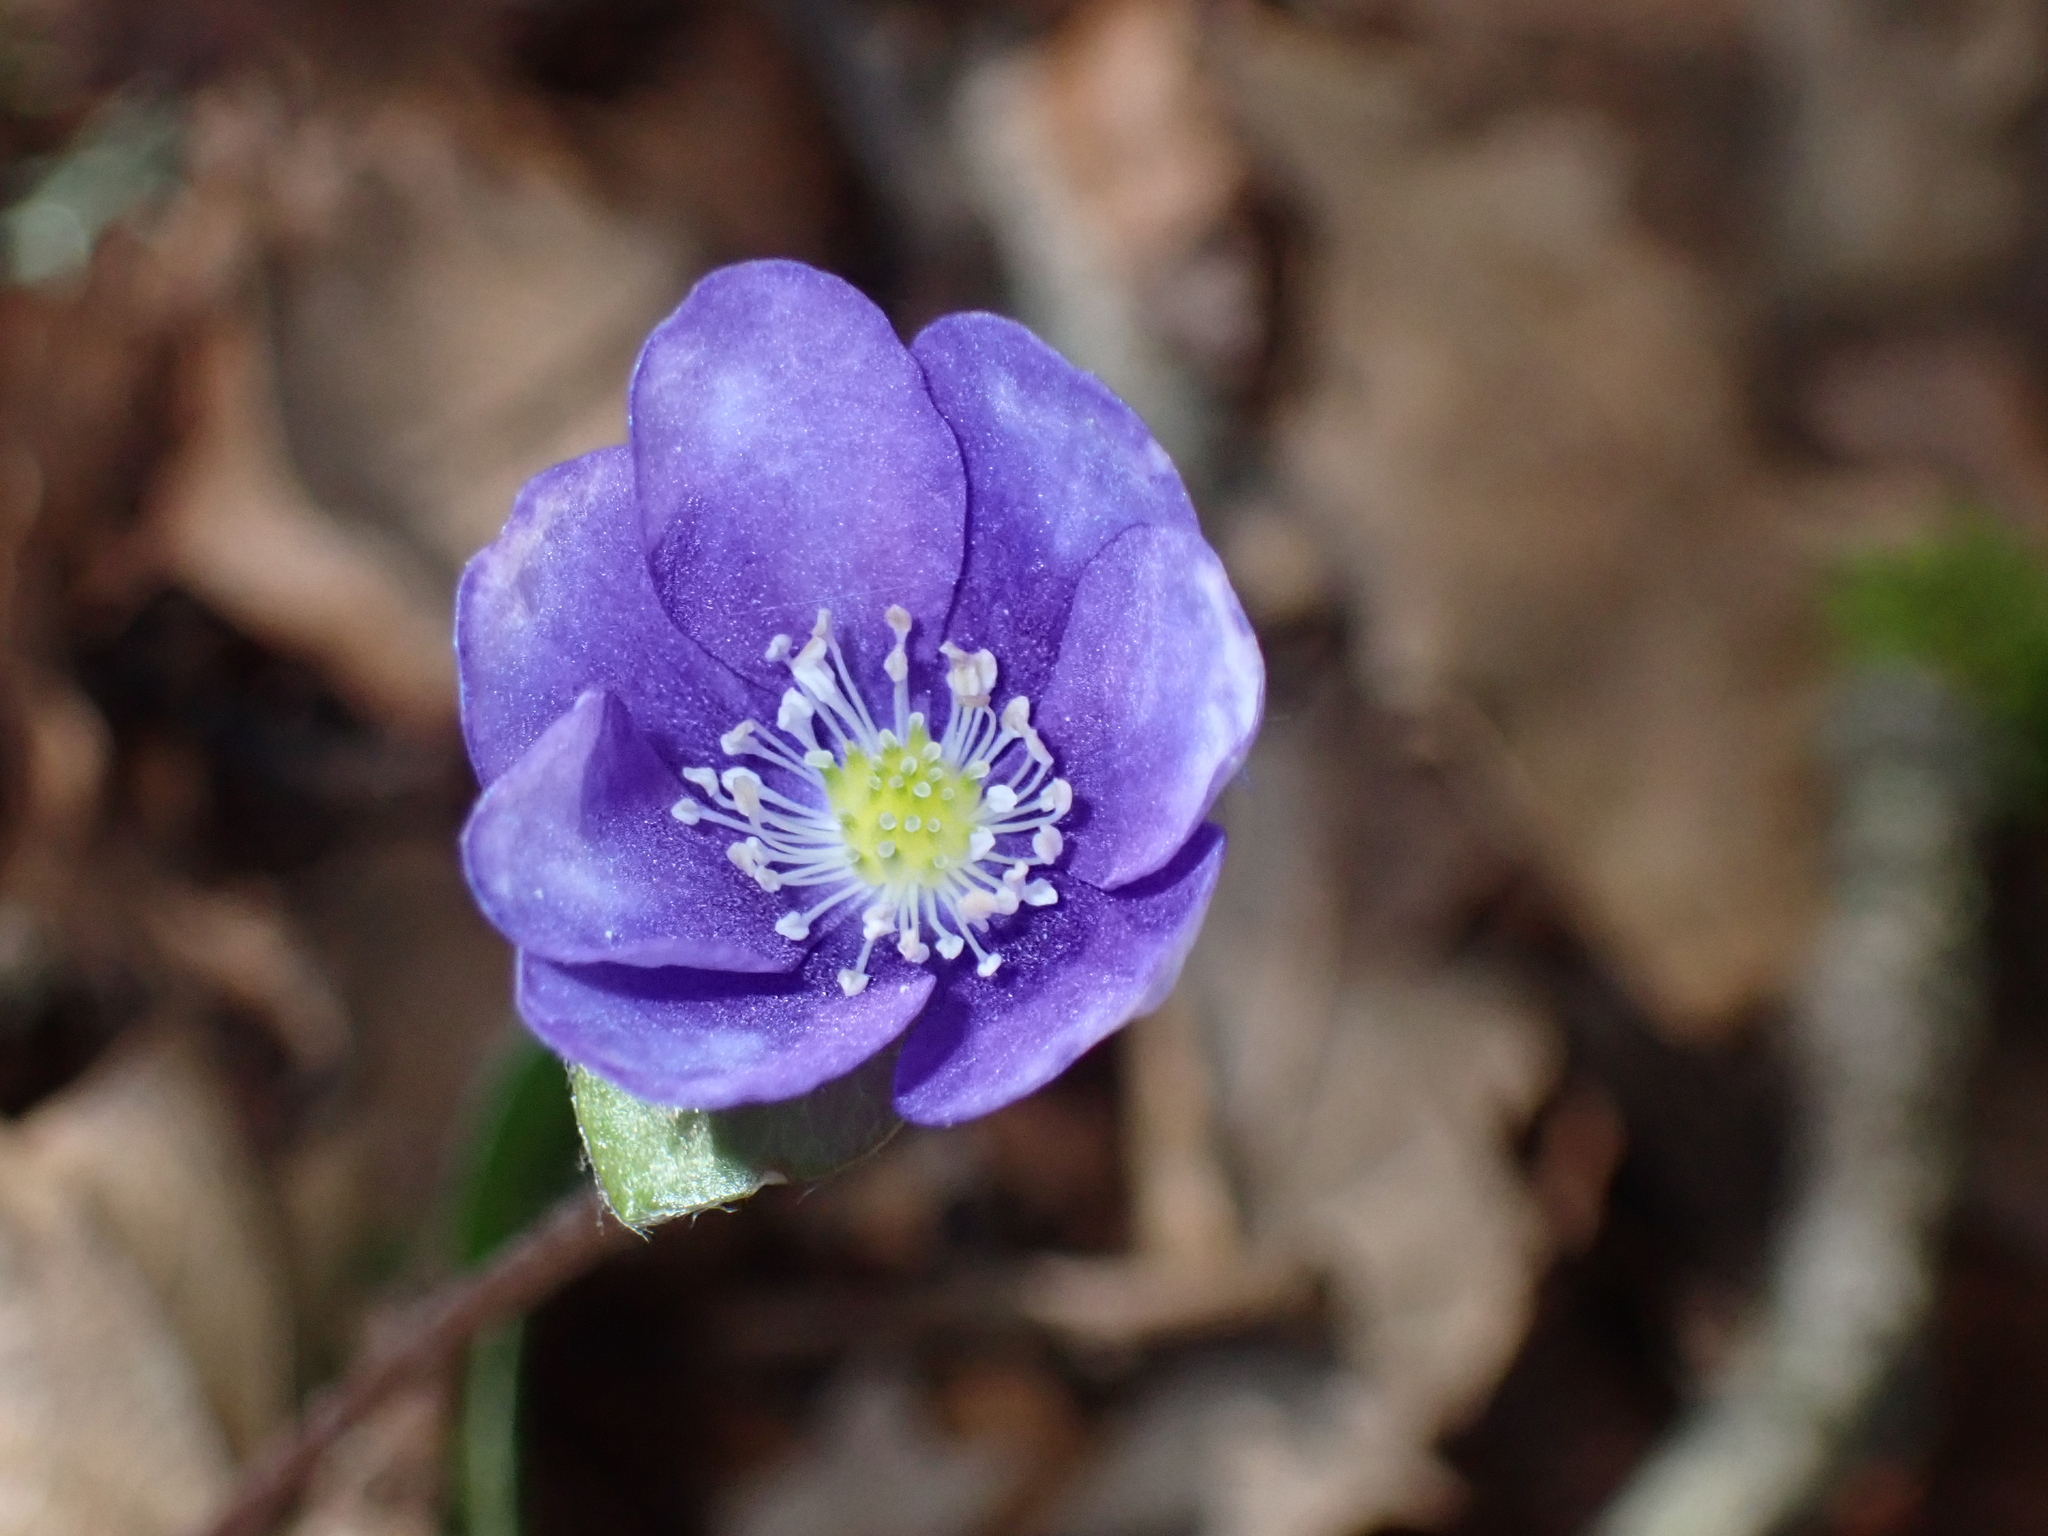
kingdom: Plantae
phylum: Tracheophyta
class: Magnoliopsida
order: Ranunculales
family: Ranunculaceae
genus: Hepatica
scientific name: Hepatica nobilis
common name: Liverleaf
